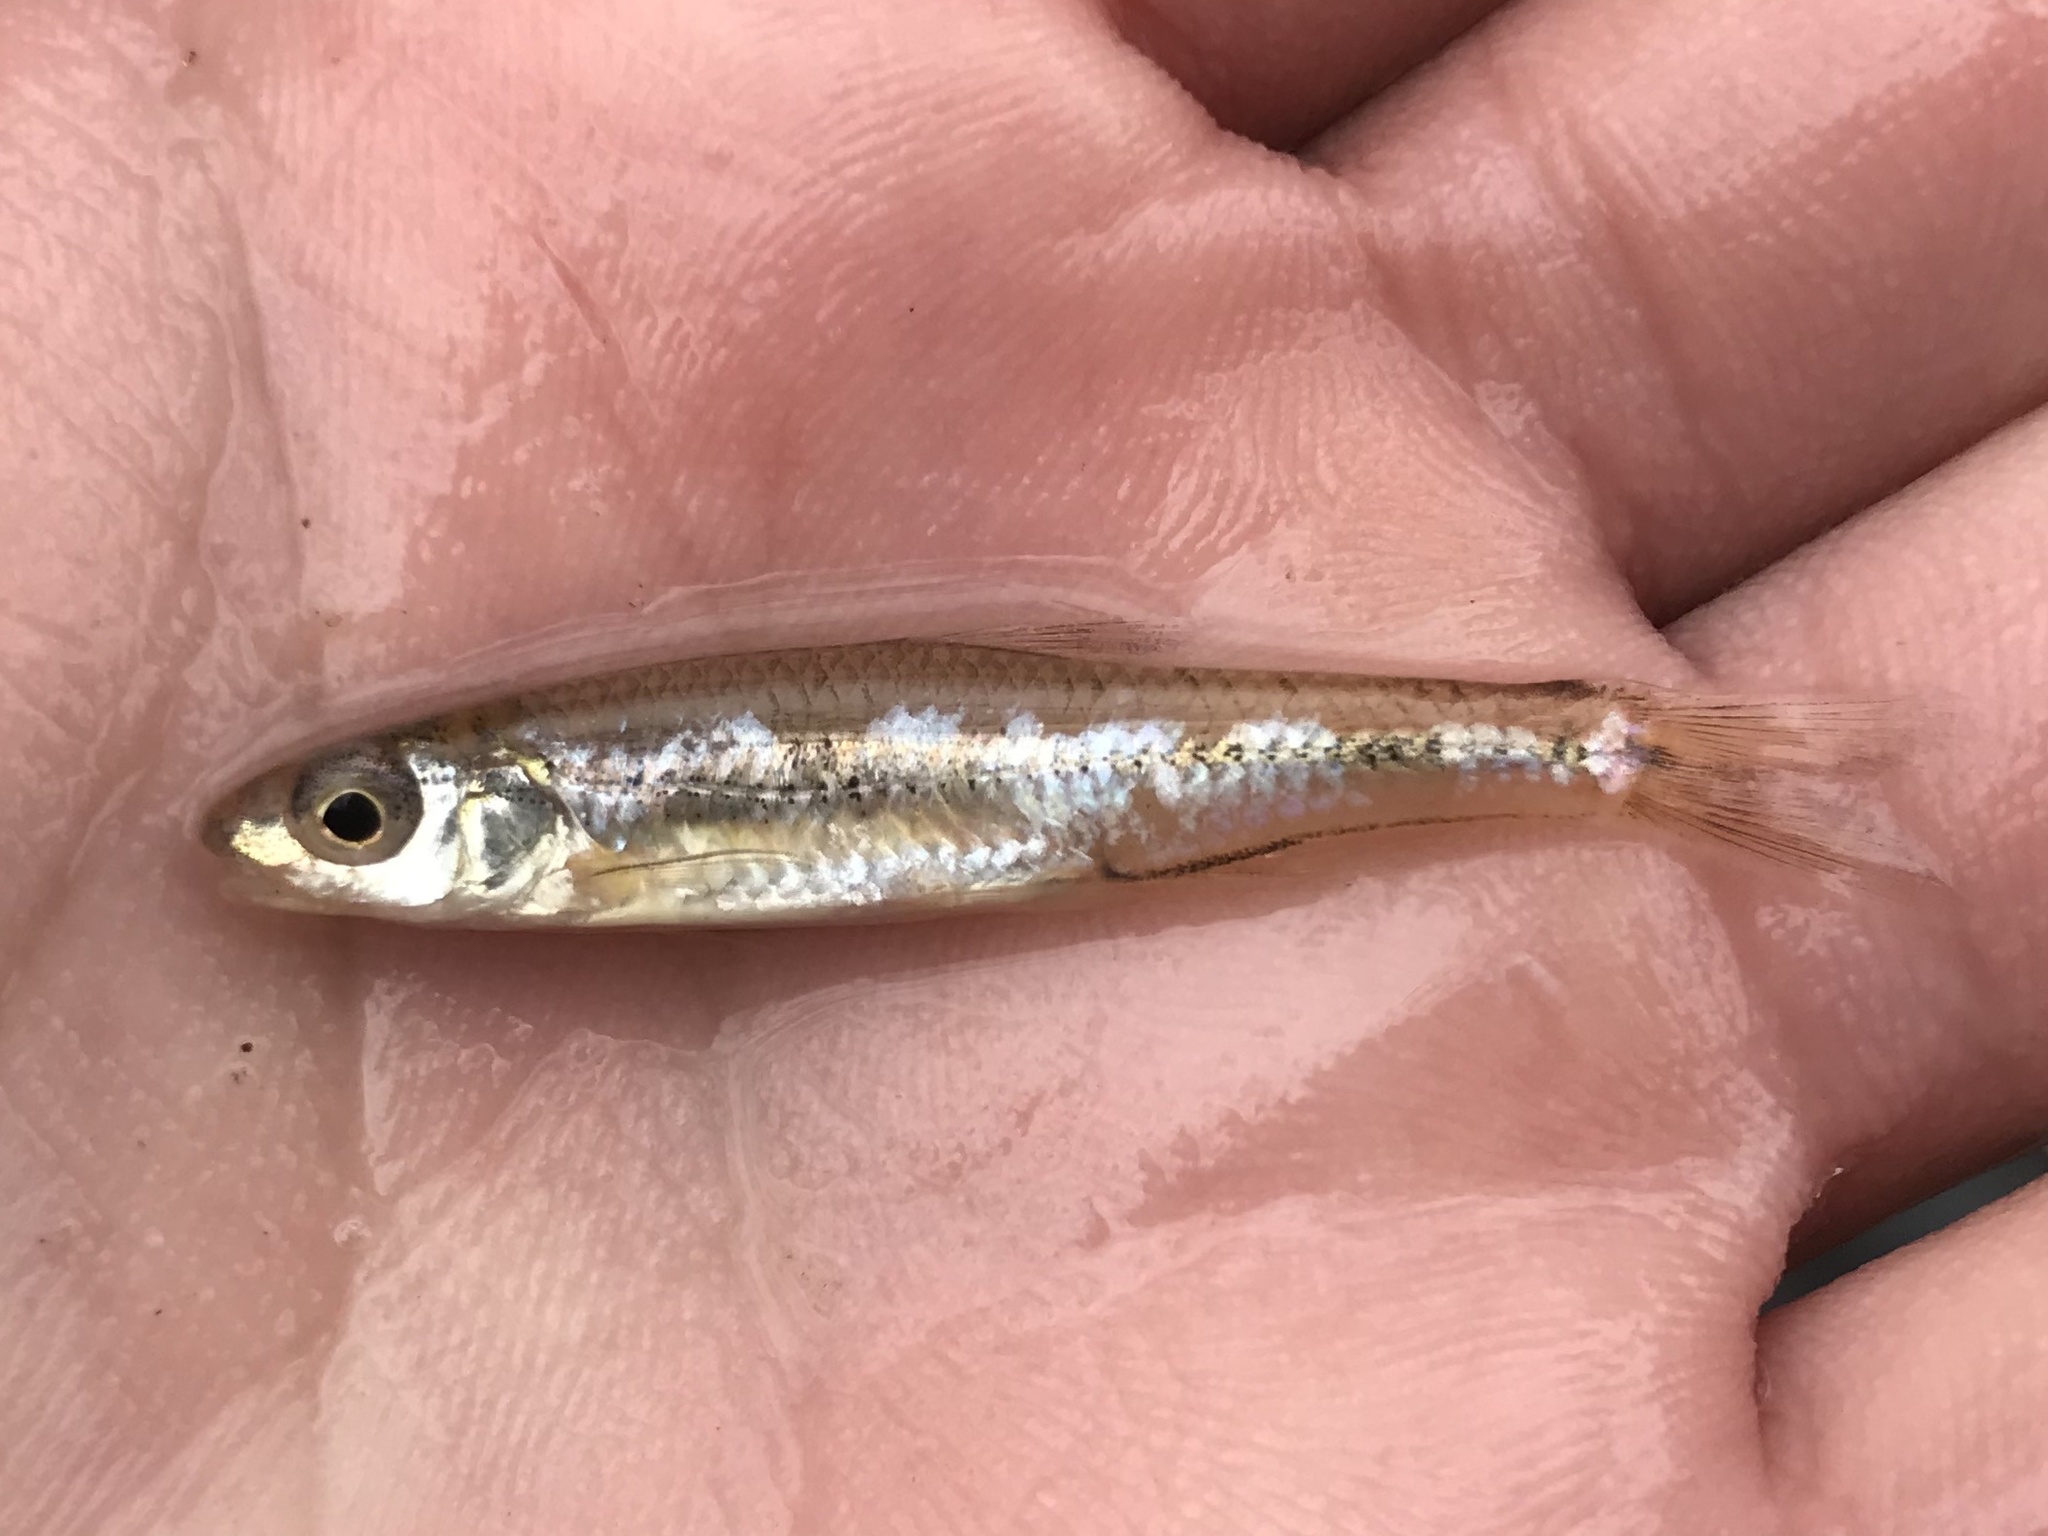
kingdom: Animalia
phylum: Chordata
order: Cypriniformes
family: Cyprinidae
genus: Notropis
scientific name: Notropis
